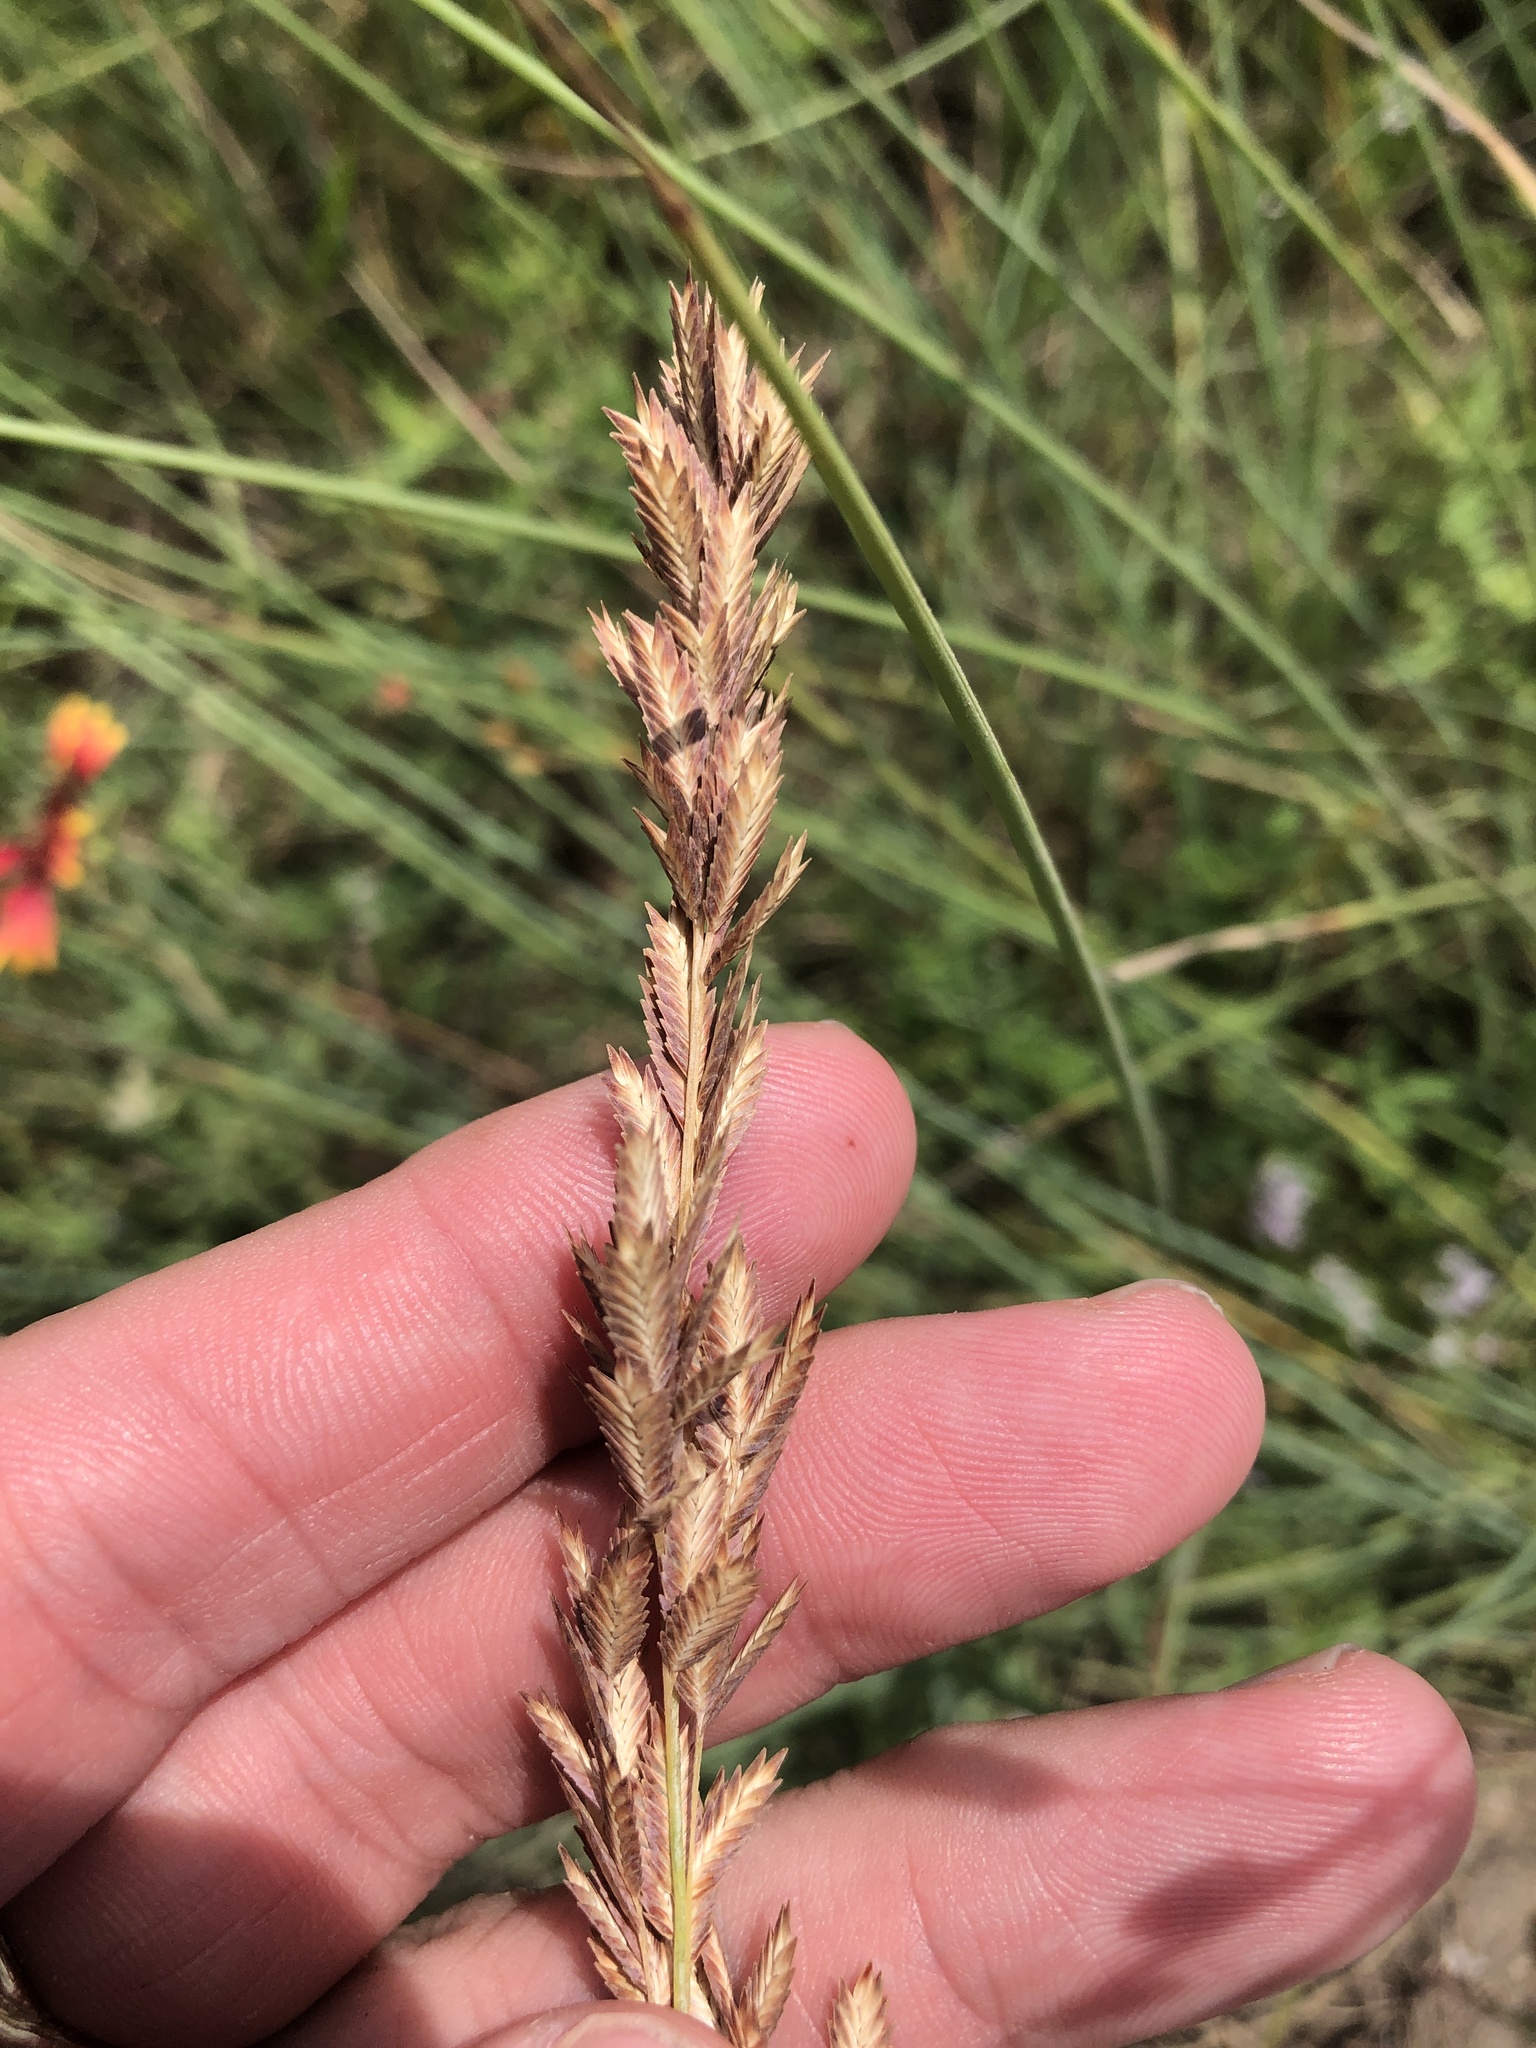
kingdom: Plantae
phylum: Tracheophyta
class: Liliopsida
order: Poales
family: Poaceae
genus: Eragrostis
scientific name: Eragrostis secundiflora
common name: Red love grass
